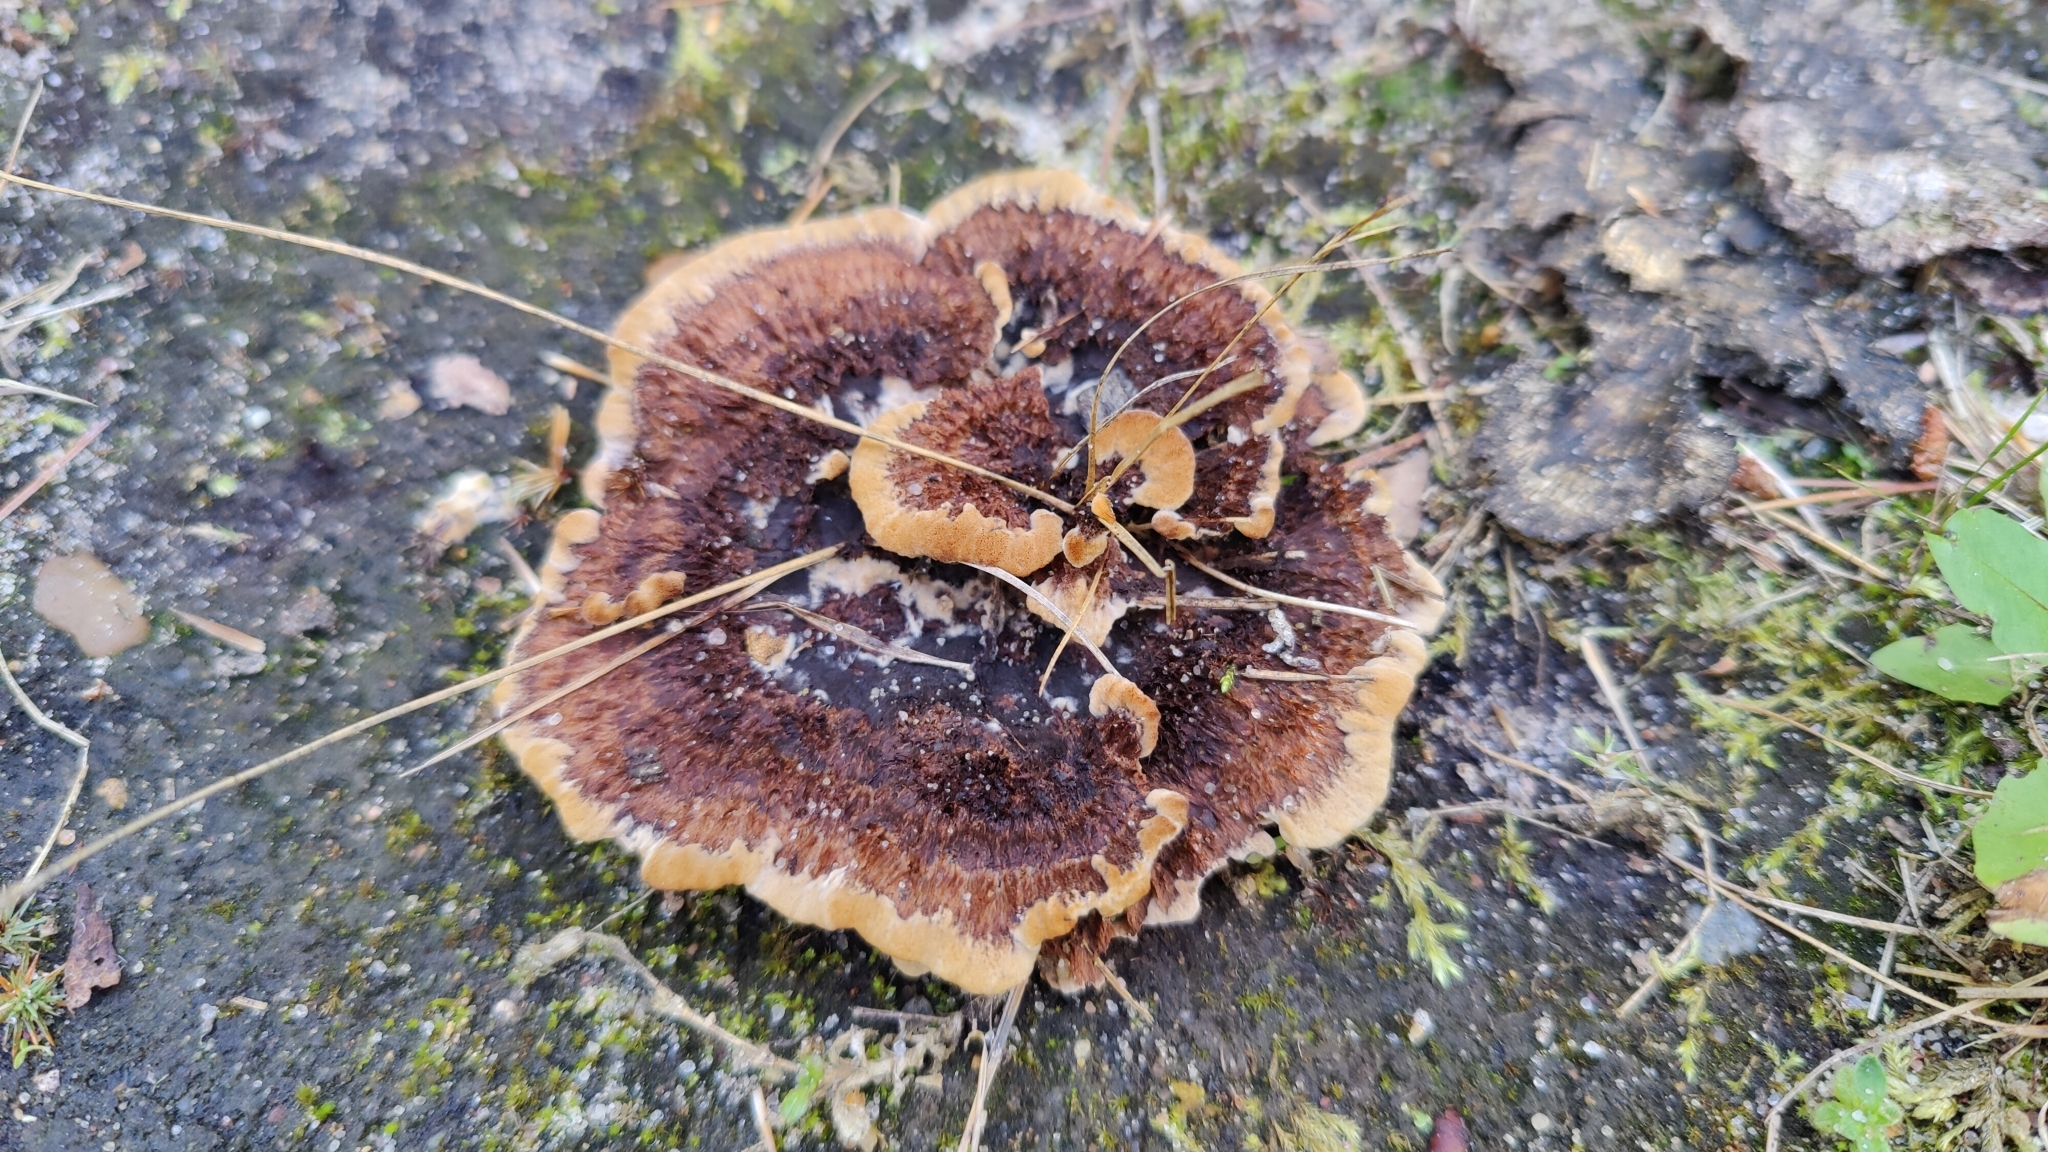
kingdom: Fungi
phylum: Basidiomycota
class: Agaricomycetes
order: Polyporales
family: Laetiporaceae
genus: Phaeolus
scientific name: Phaeolus schweinitzii
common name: Dyer's mazegill
